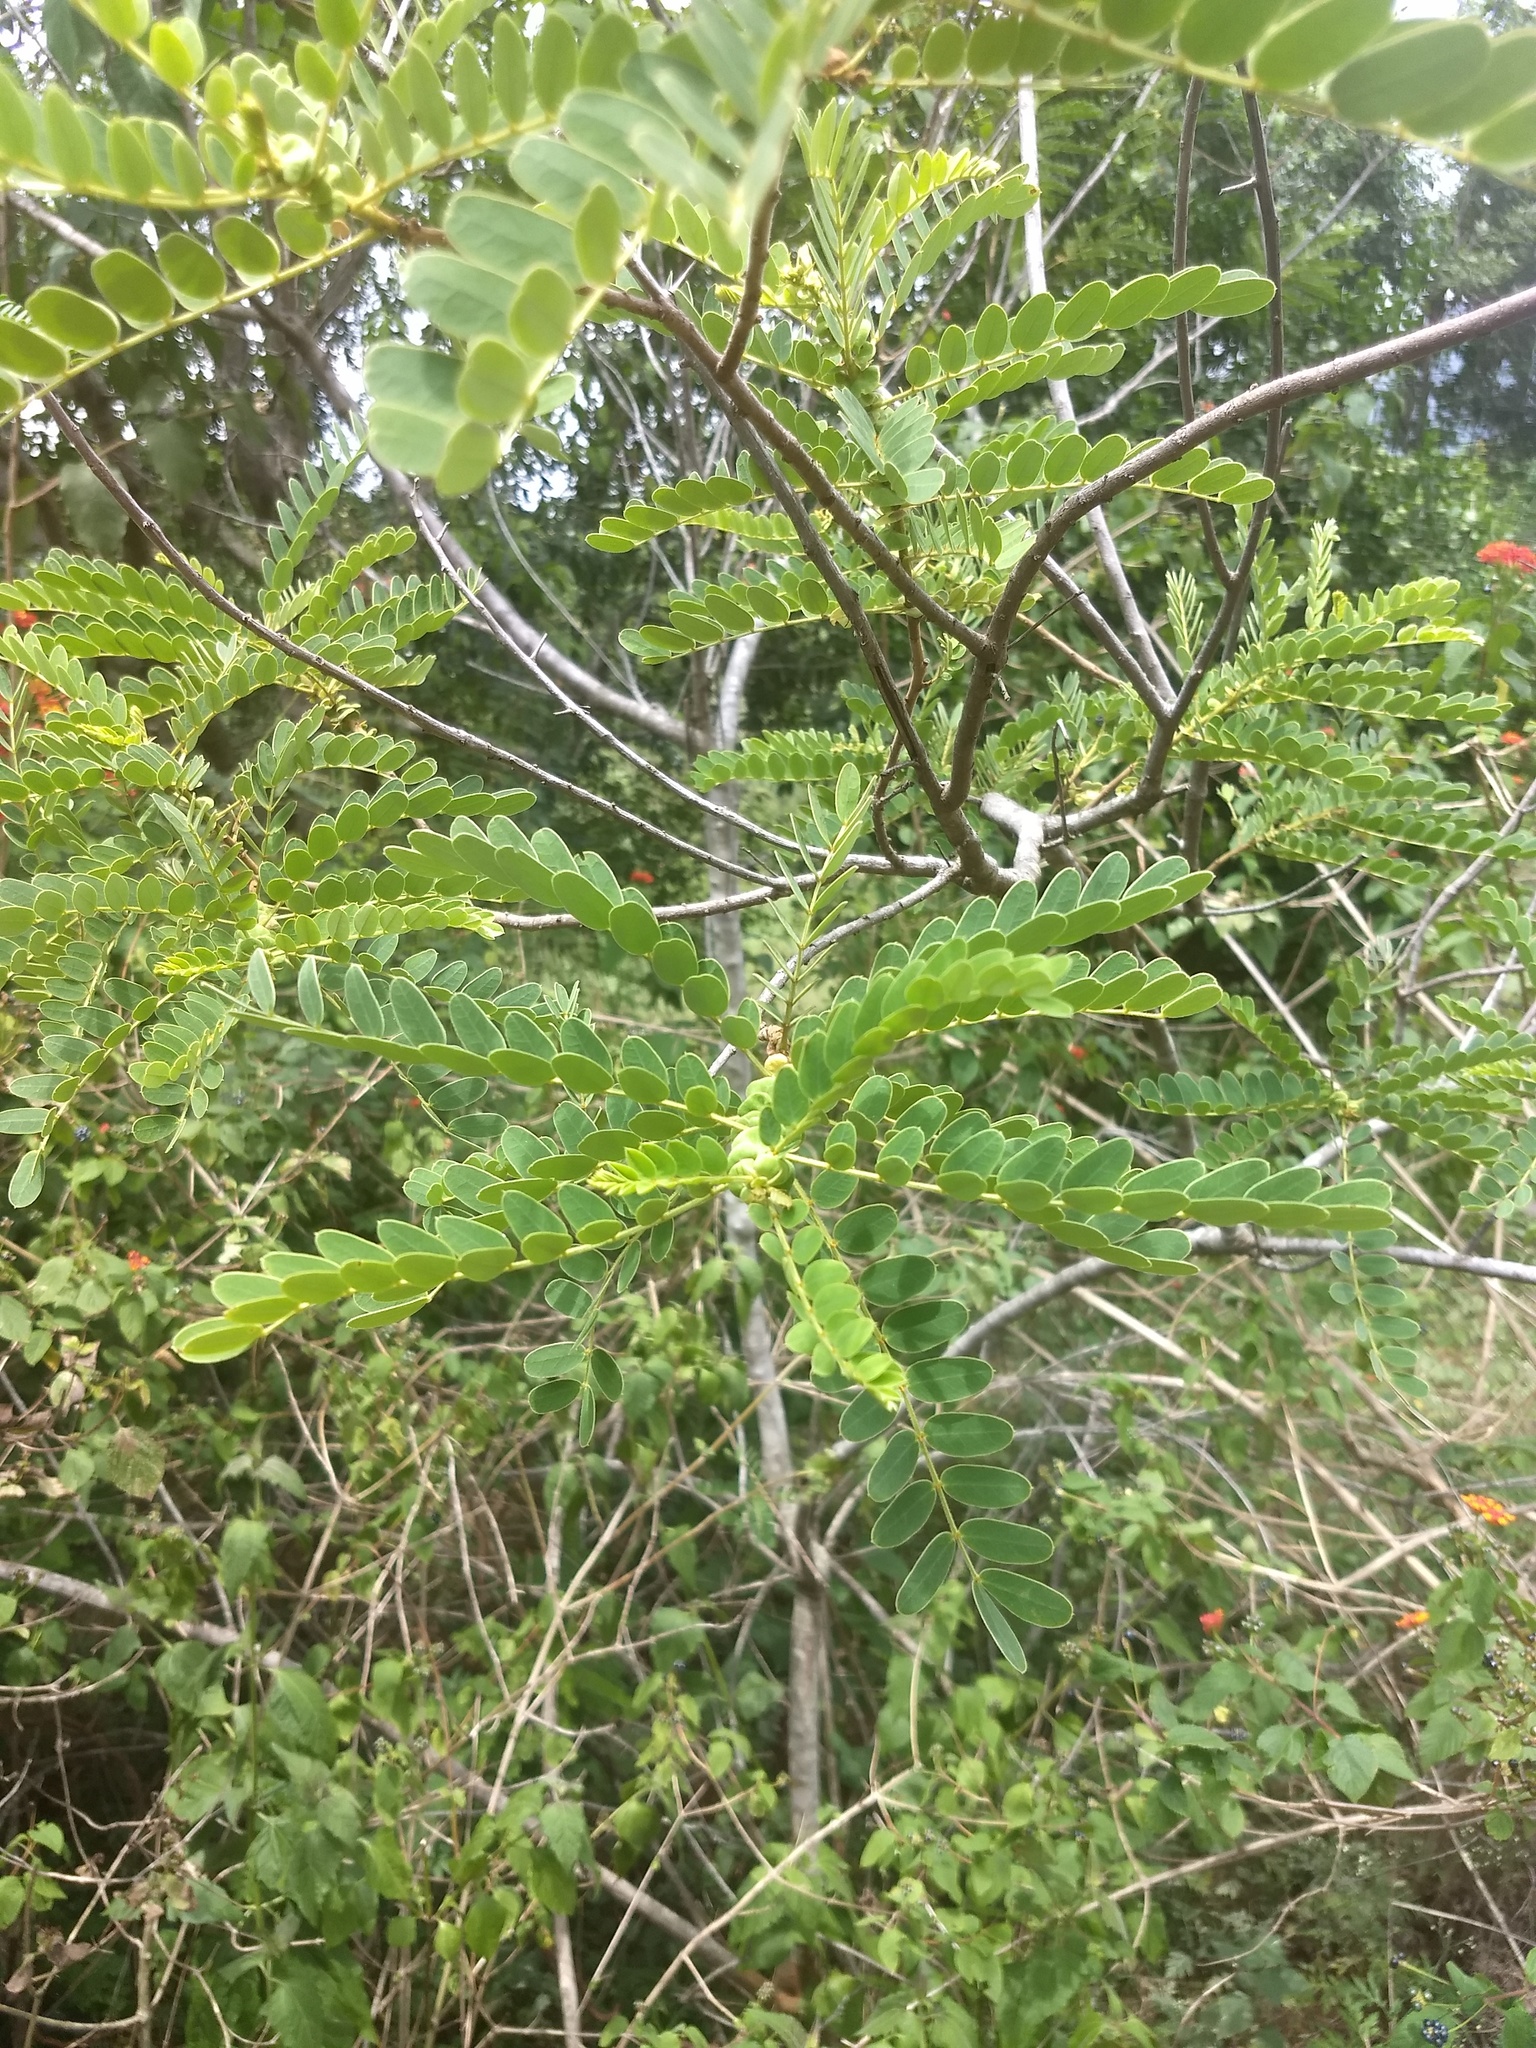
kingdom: Plantae
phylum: Tracheophyta
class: Magnoliopsida
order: Fabales
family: Fabaceae
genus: Senna
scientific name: Senna auriculata
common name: Tanner's cassia
